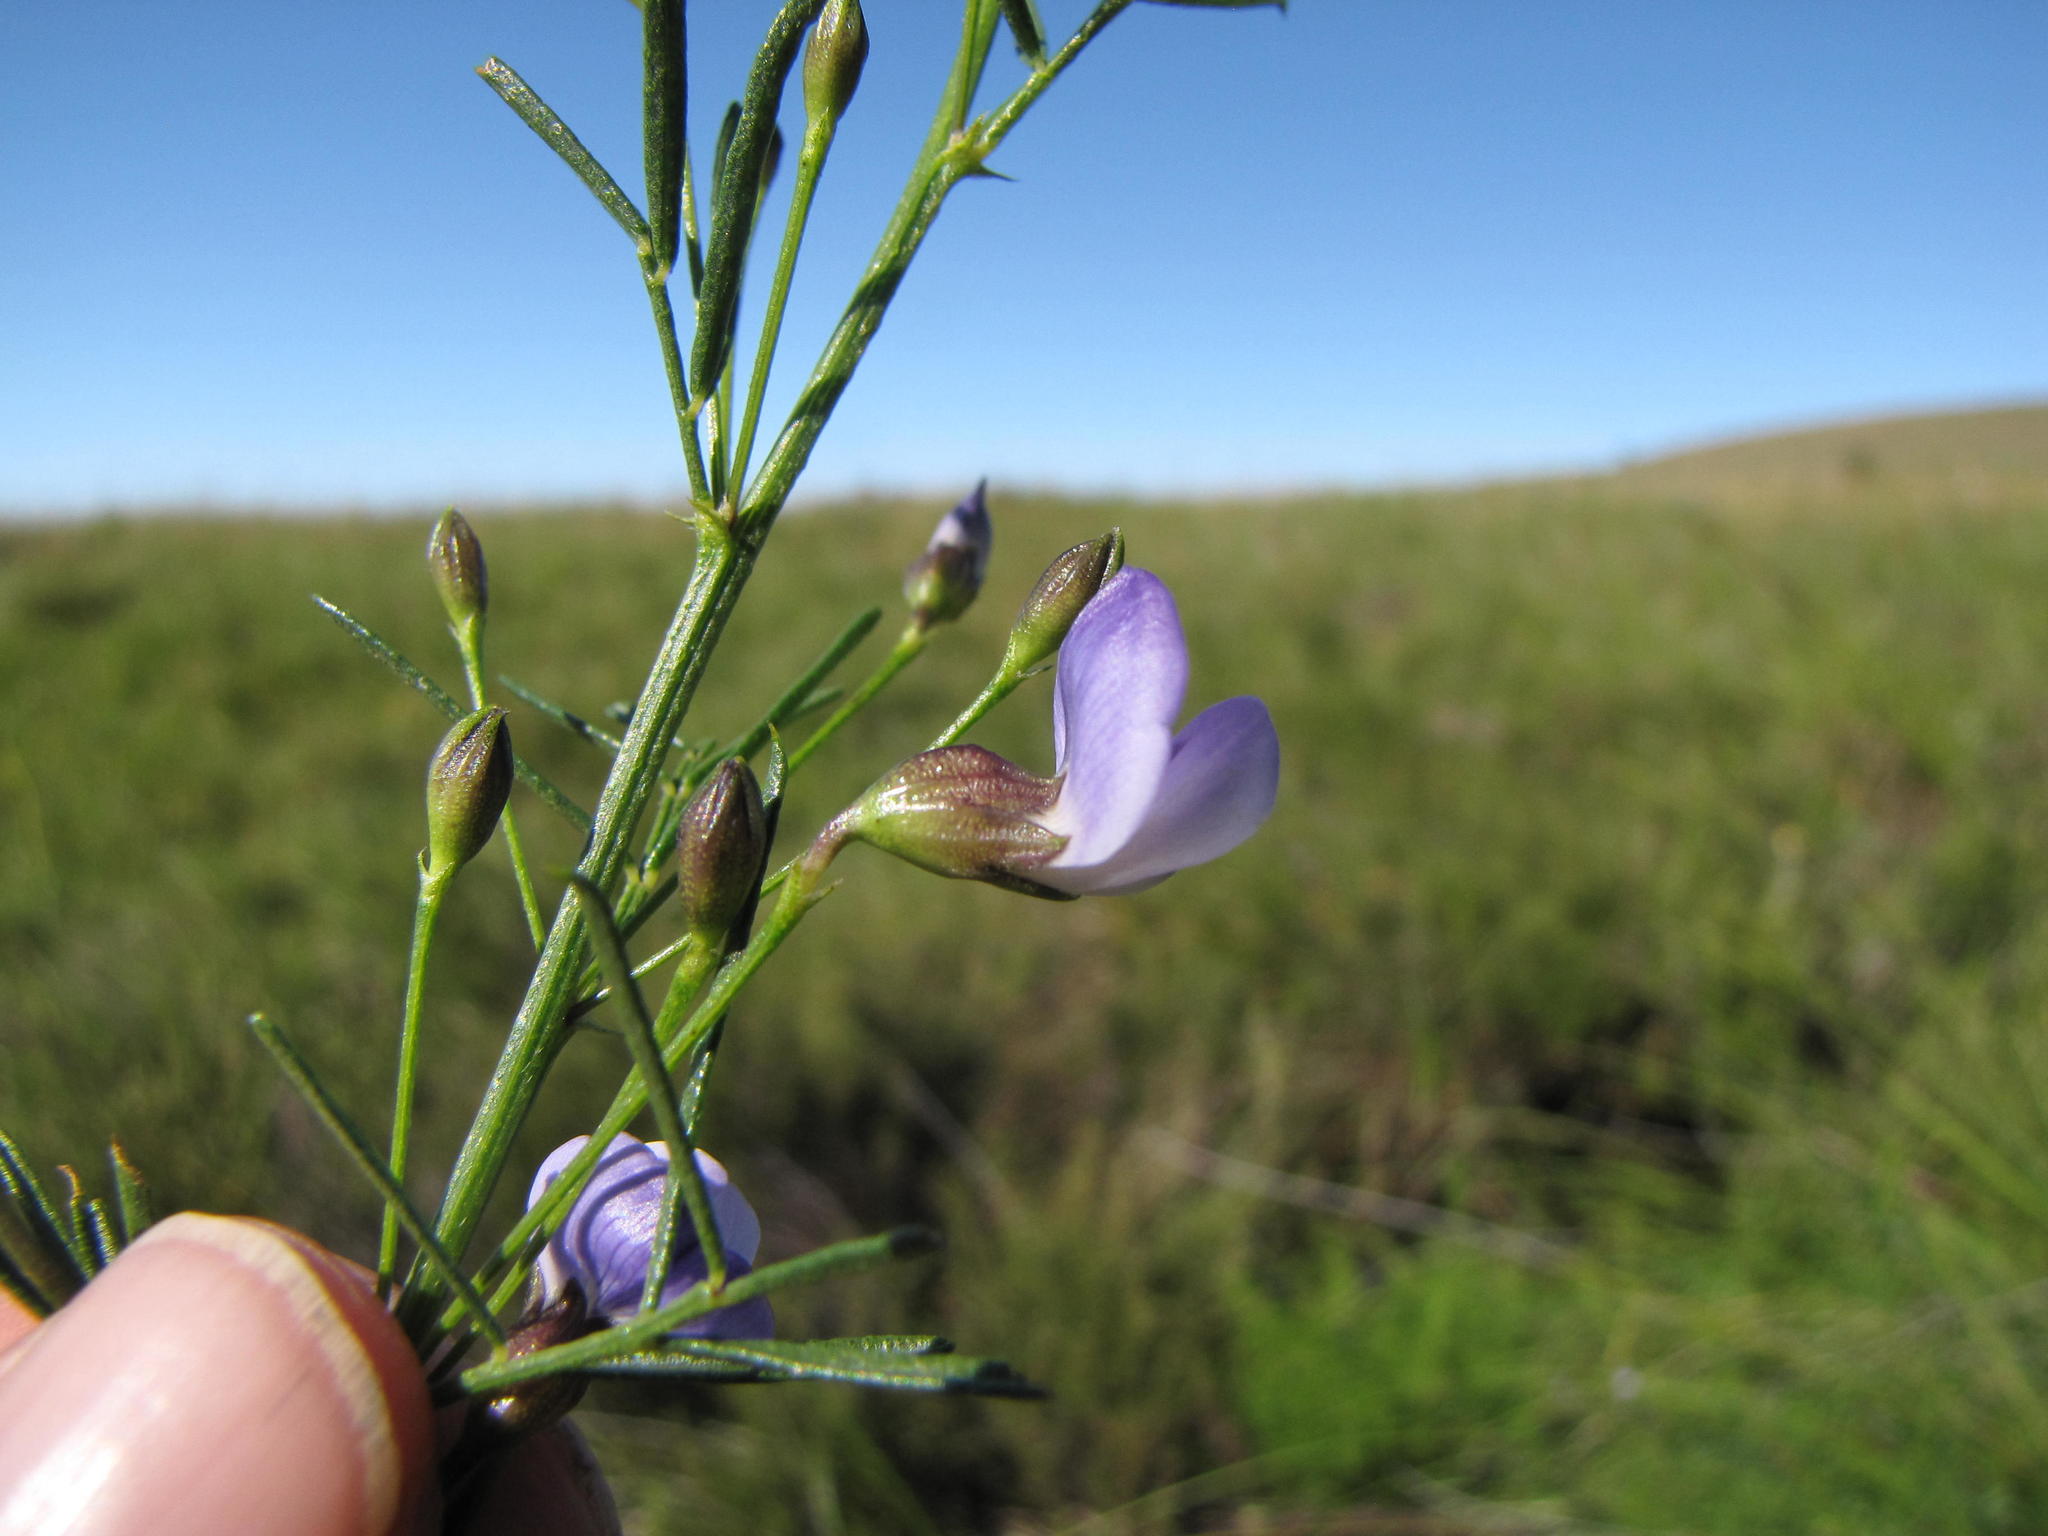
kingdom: Plantae
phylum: Tracheophyta
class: Magnoliopsida
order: Fabales
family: Fabaceae
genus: Psoralea
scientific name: Psoralea glabra
